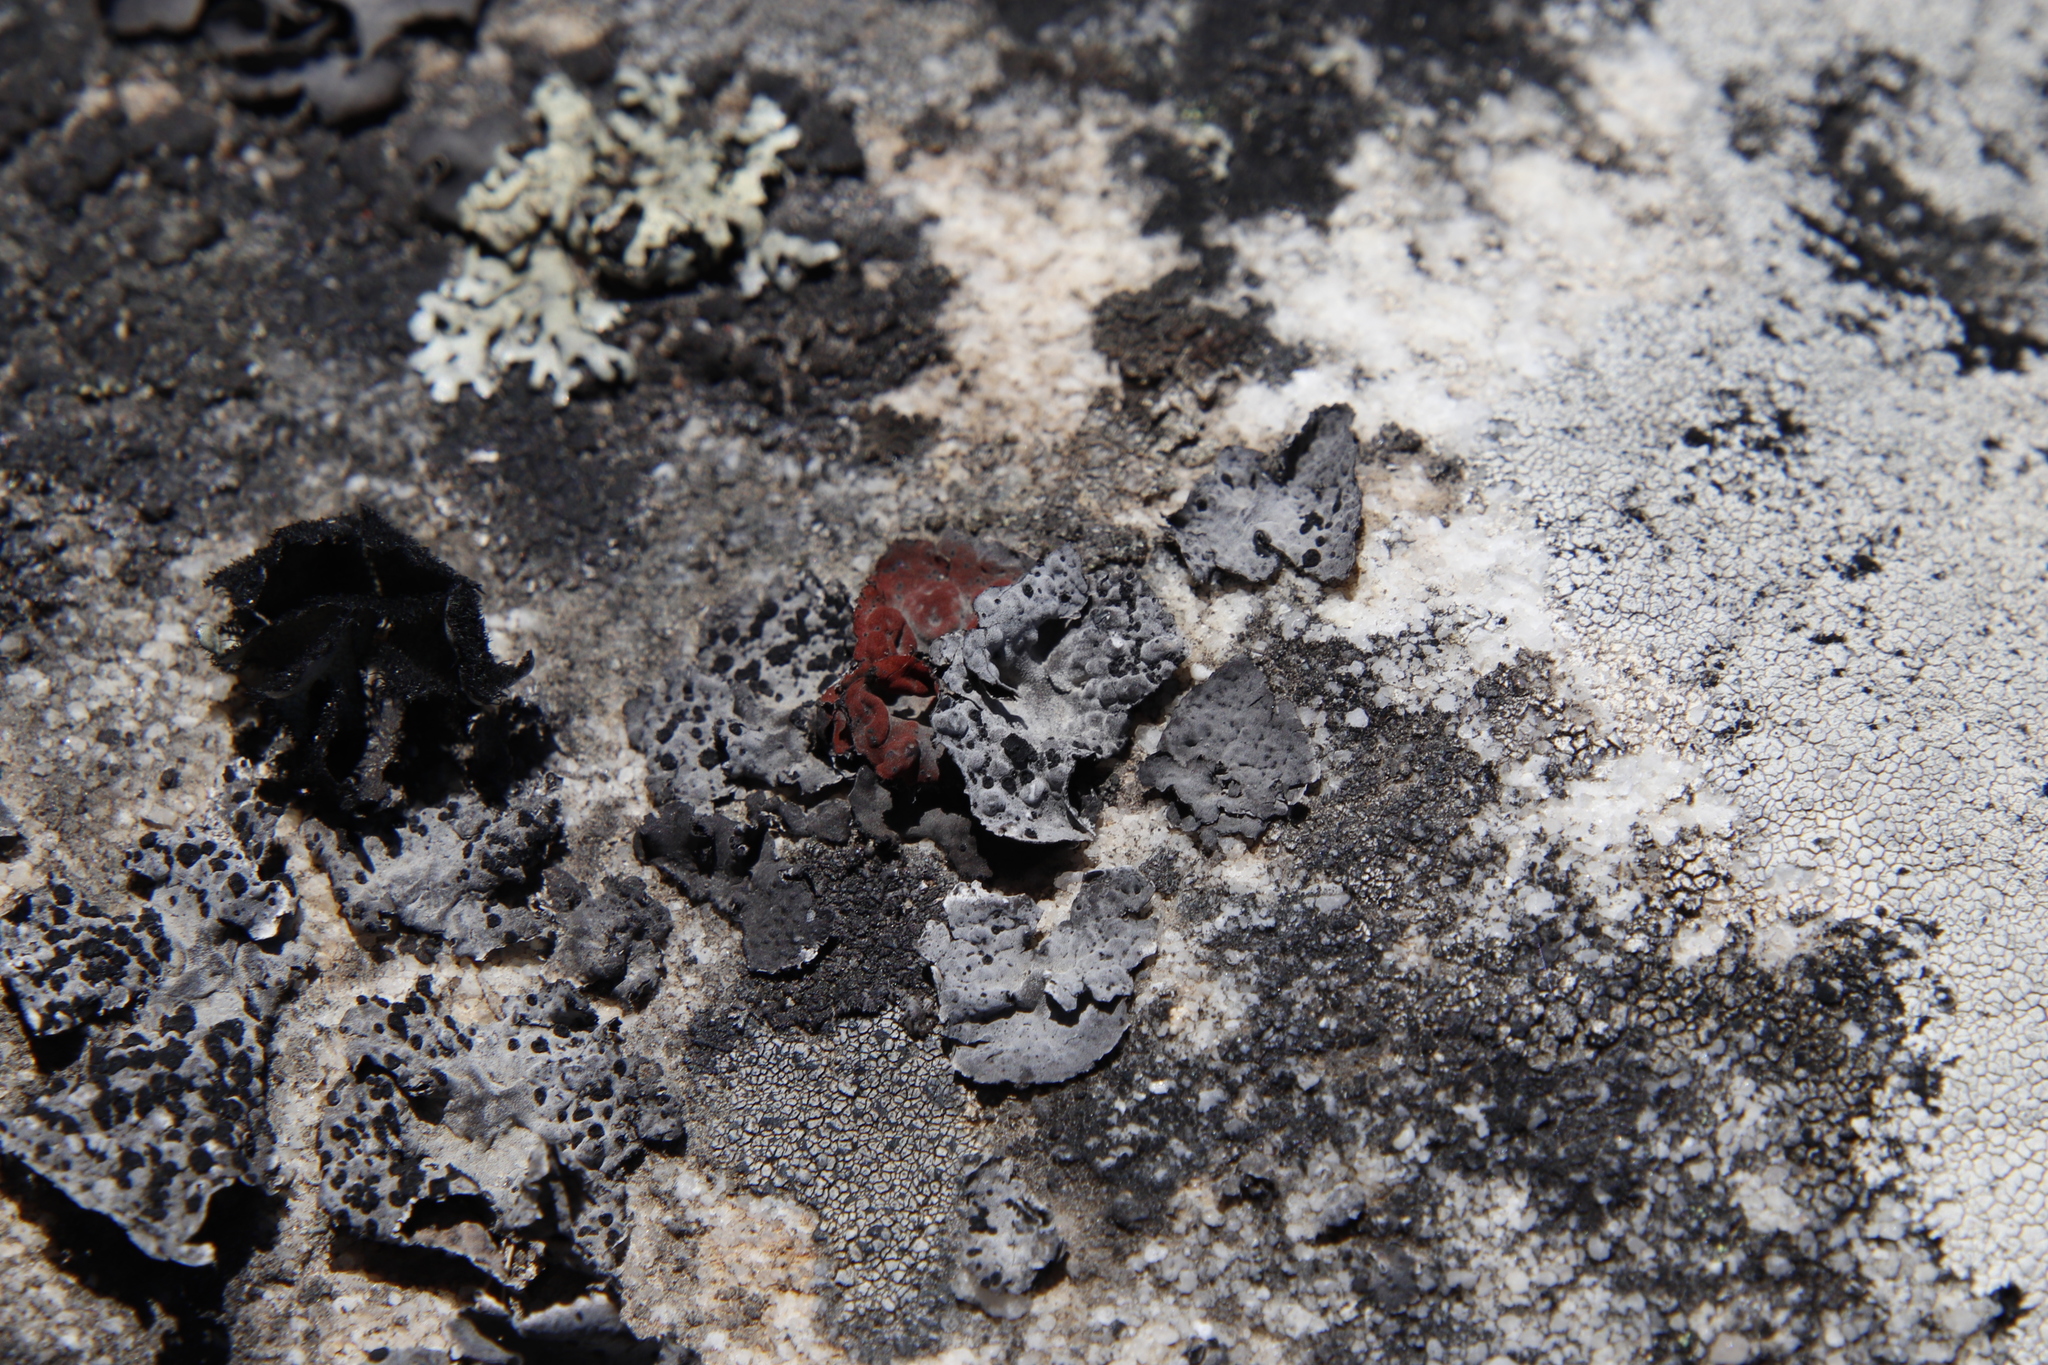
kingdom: Fungi
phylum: Ascomycota
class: Lecanoromycetes
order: Umbilicariales
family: Umbilicariaceae
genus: Lasallia
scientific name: Lasallia rubiginosa
